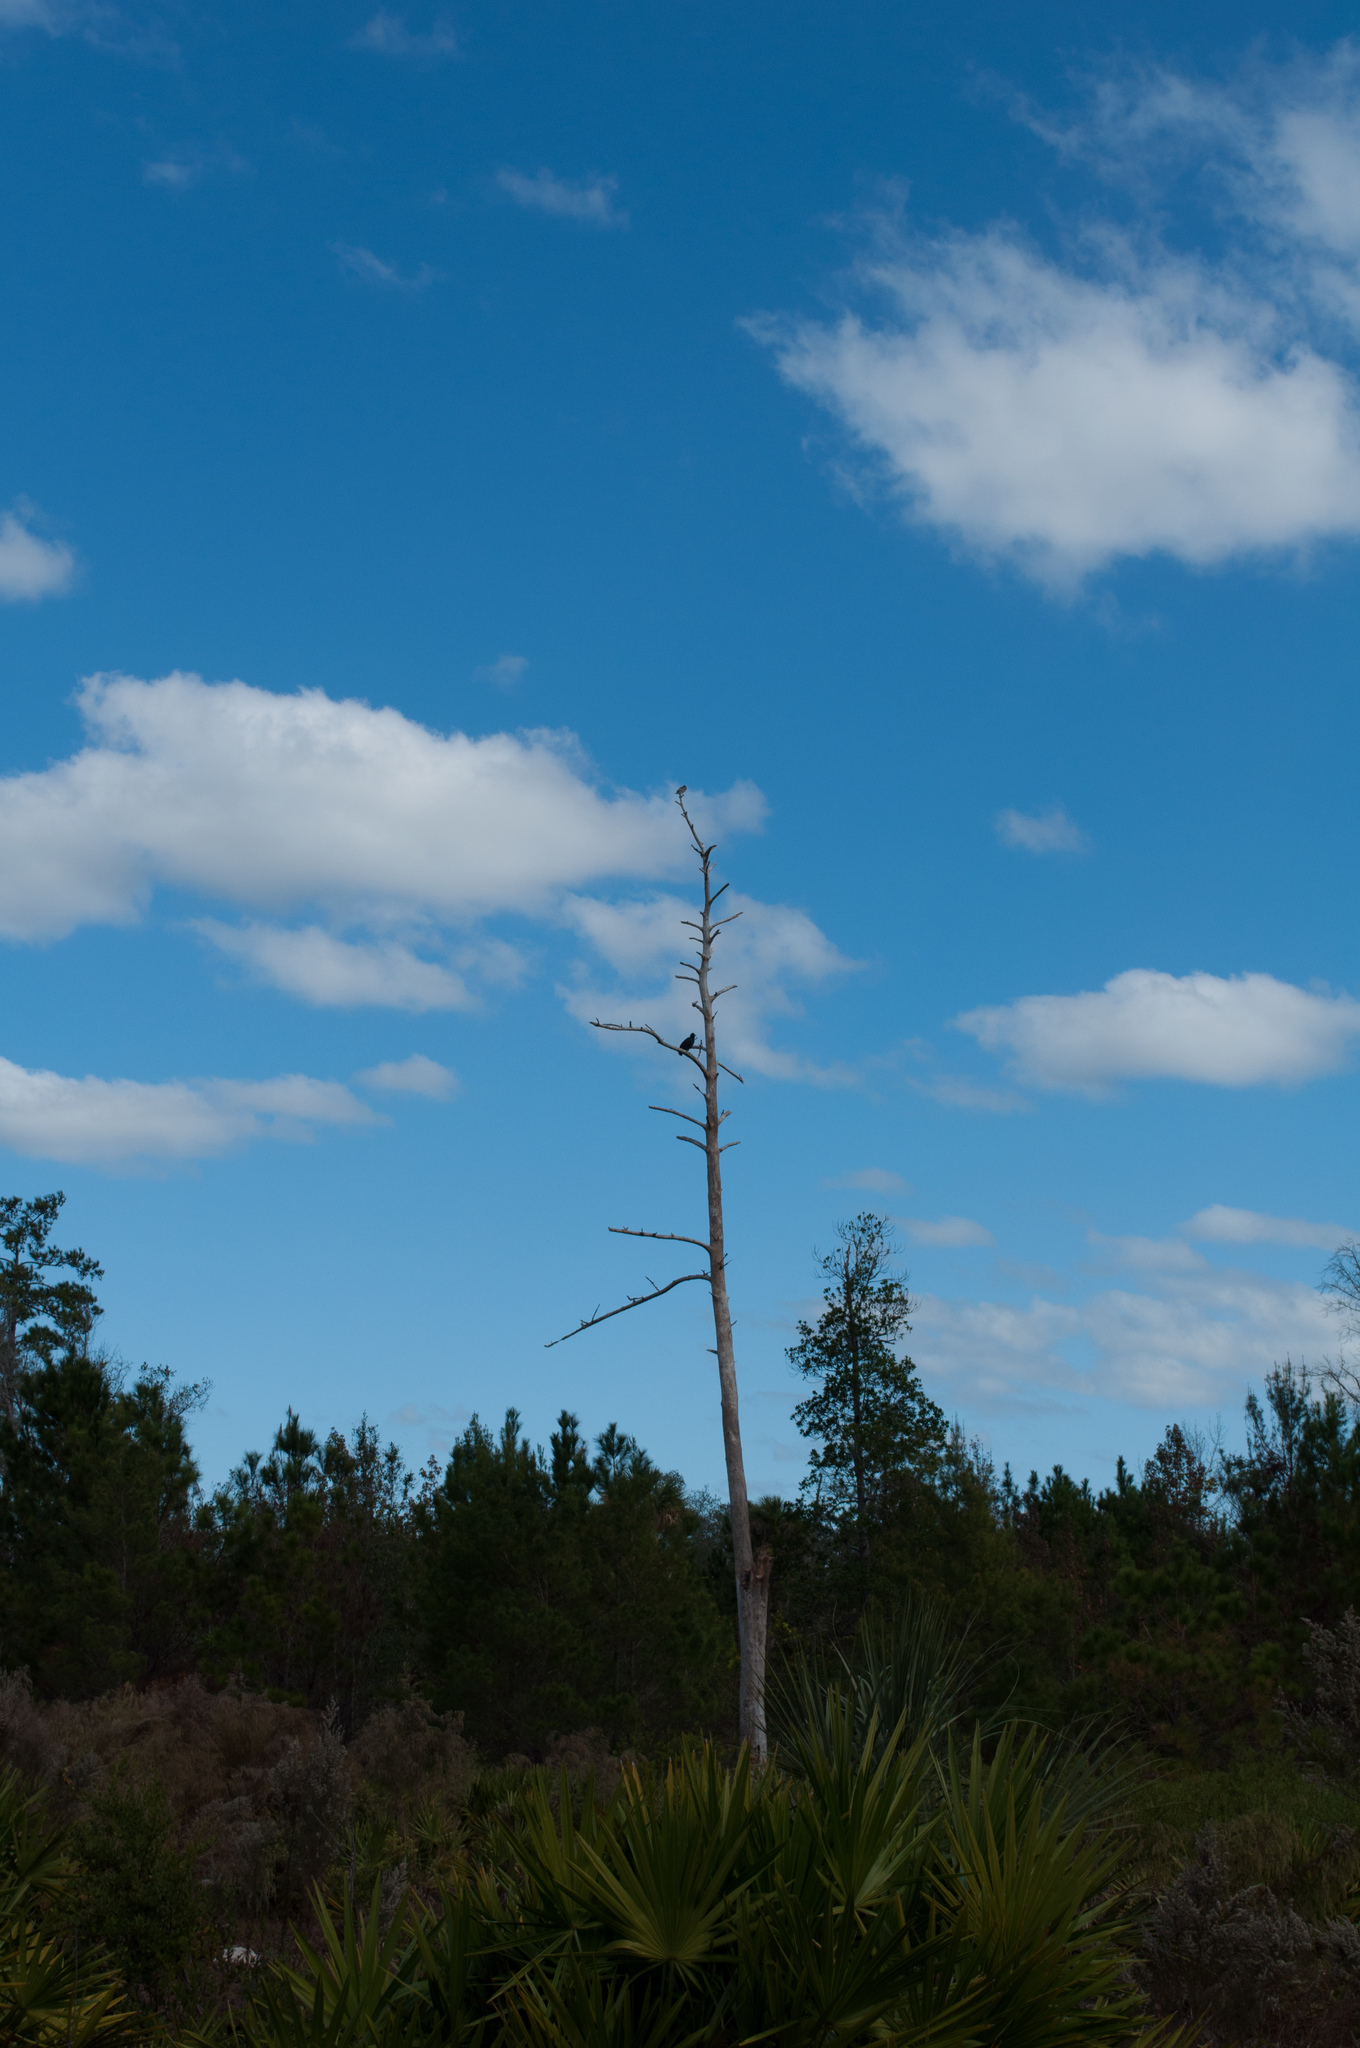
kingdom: Animalia
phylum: Chordata
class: Aves
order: Accipitriformes
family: Cathartidae
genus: Coragyps
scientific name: Coragyps atratus
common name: Black vulture
